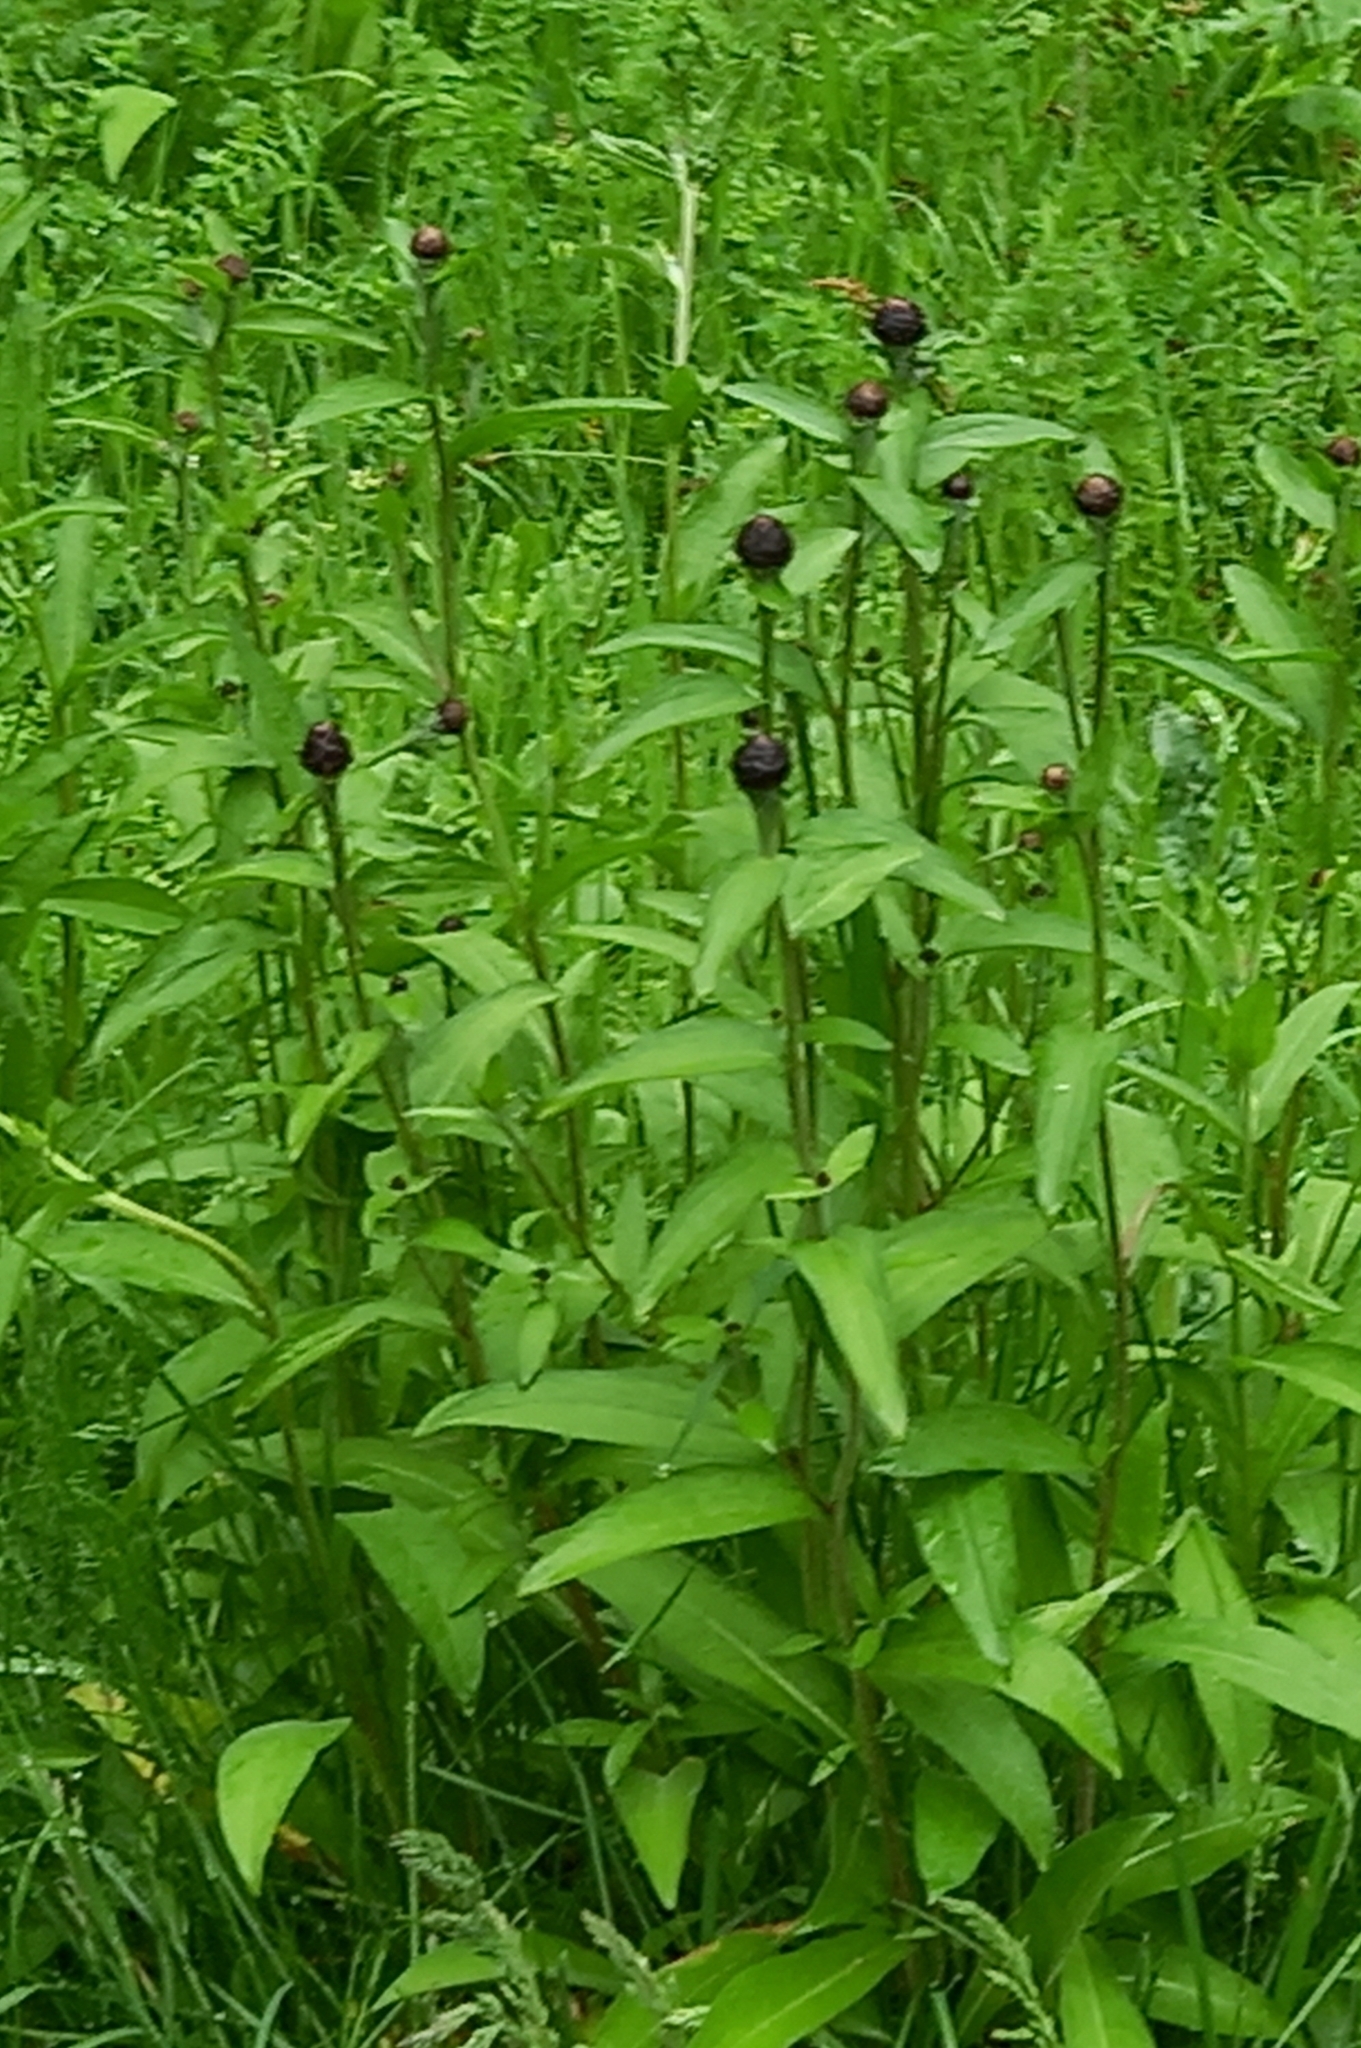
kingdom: Plantae
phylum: Tracheophyta
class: Magnoliopsida
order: Asterales
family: Asteraceae
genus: Centaurea
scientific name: Centaurea nigra
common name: Lesser knapweed
